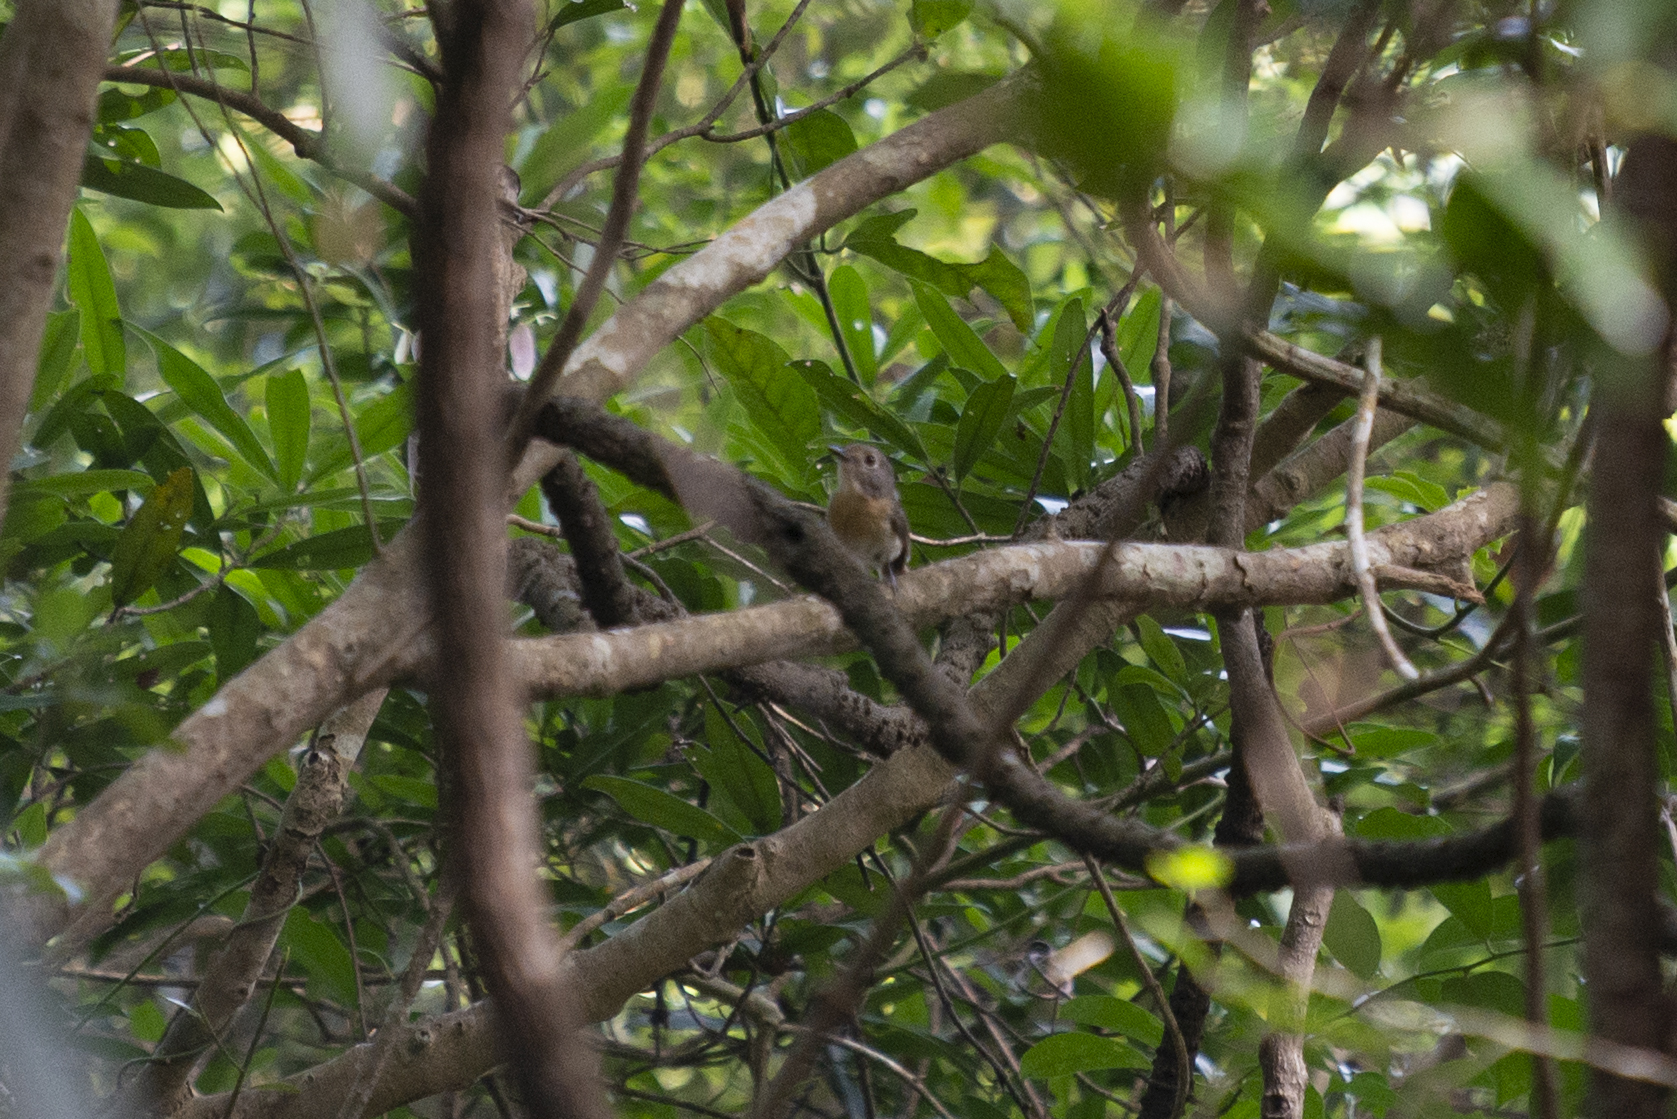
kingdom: Animalia
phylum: Chordata
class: Aves
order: Passeriformes
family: Muscicapidae
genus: Cyornis
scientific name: Cyornis hainanus
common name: Hainan blue flycatcher
